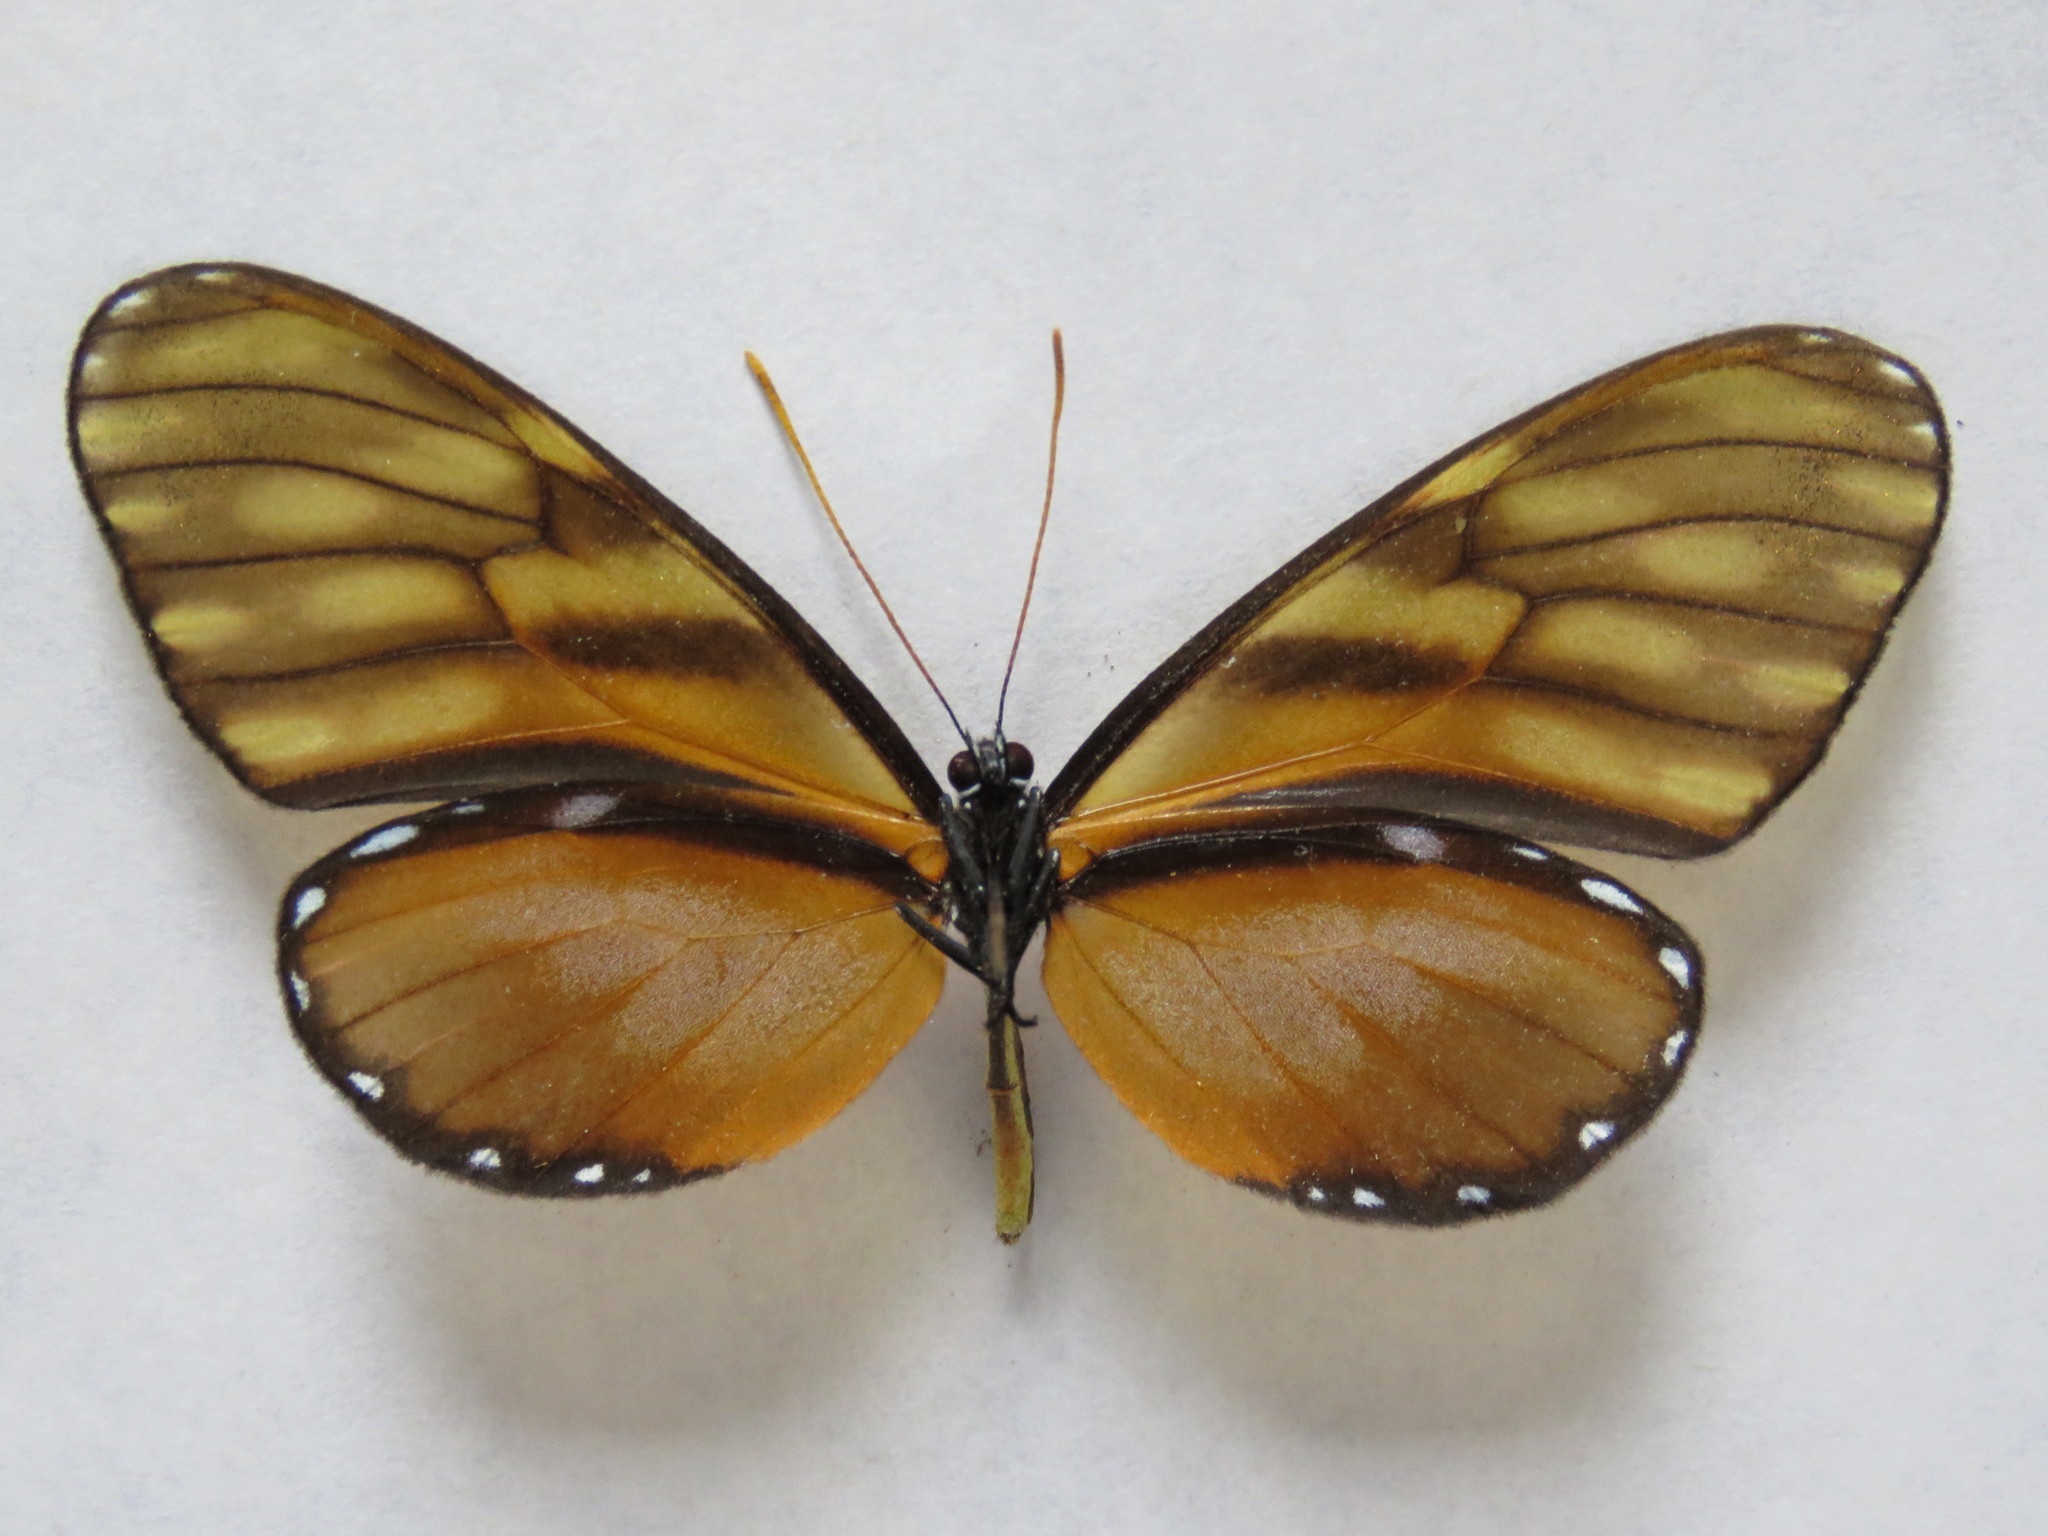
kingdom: Animalia
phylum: Arthropoda
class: Insecta
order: Lepidoptera
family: Nymphalidae
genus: Dircenna
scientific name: Dircenna klugii
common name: Klug’s clearwing
